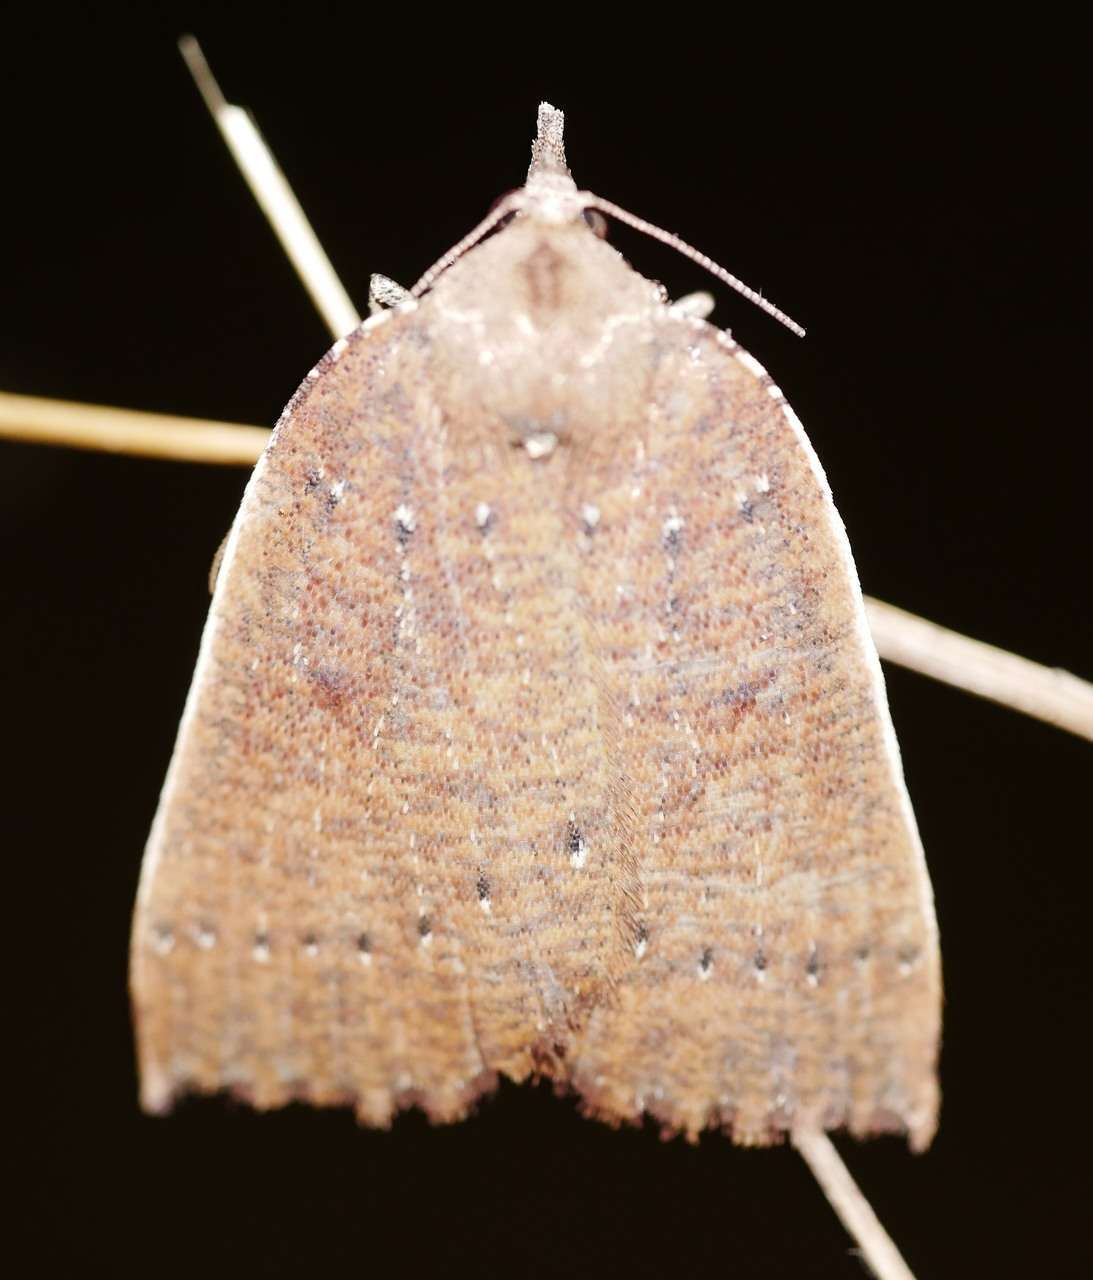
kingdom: Animalia
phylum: Arthropoda
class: Insecta
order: Lepidoptera
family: Geometridae
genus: Authaemon
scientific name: Authaemon stenonipha
